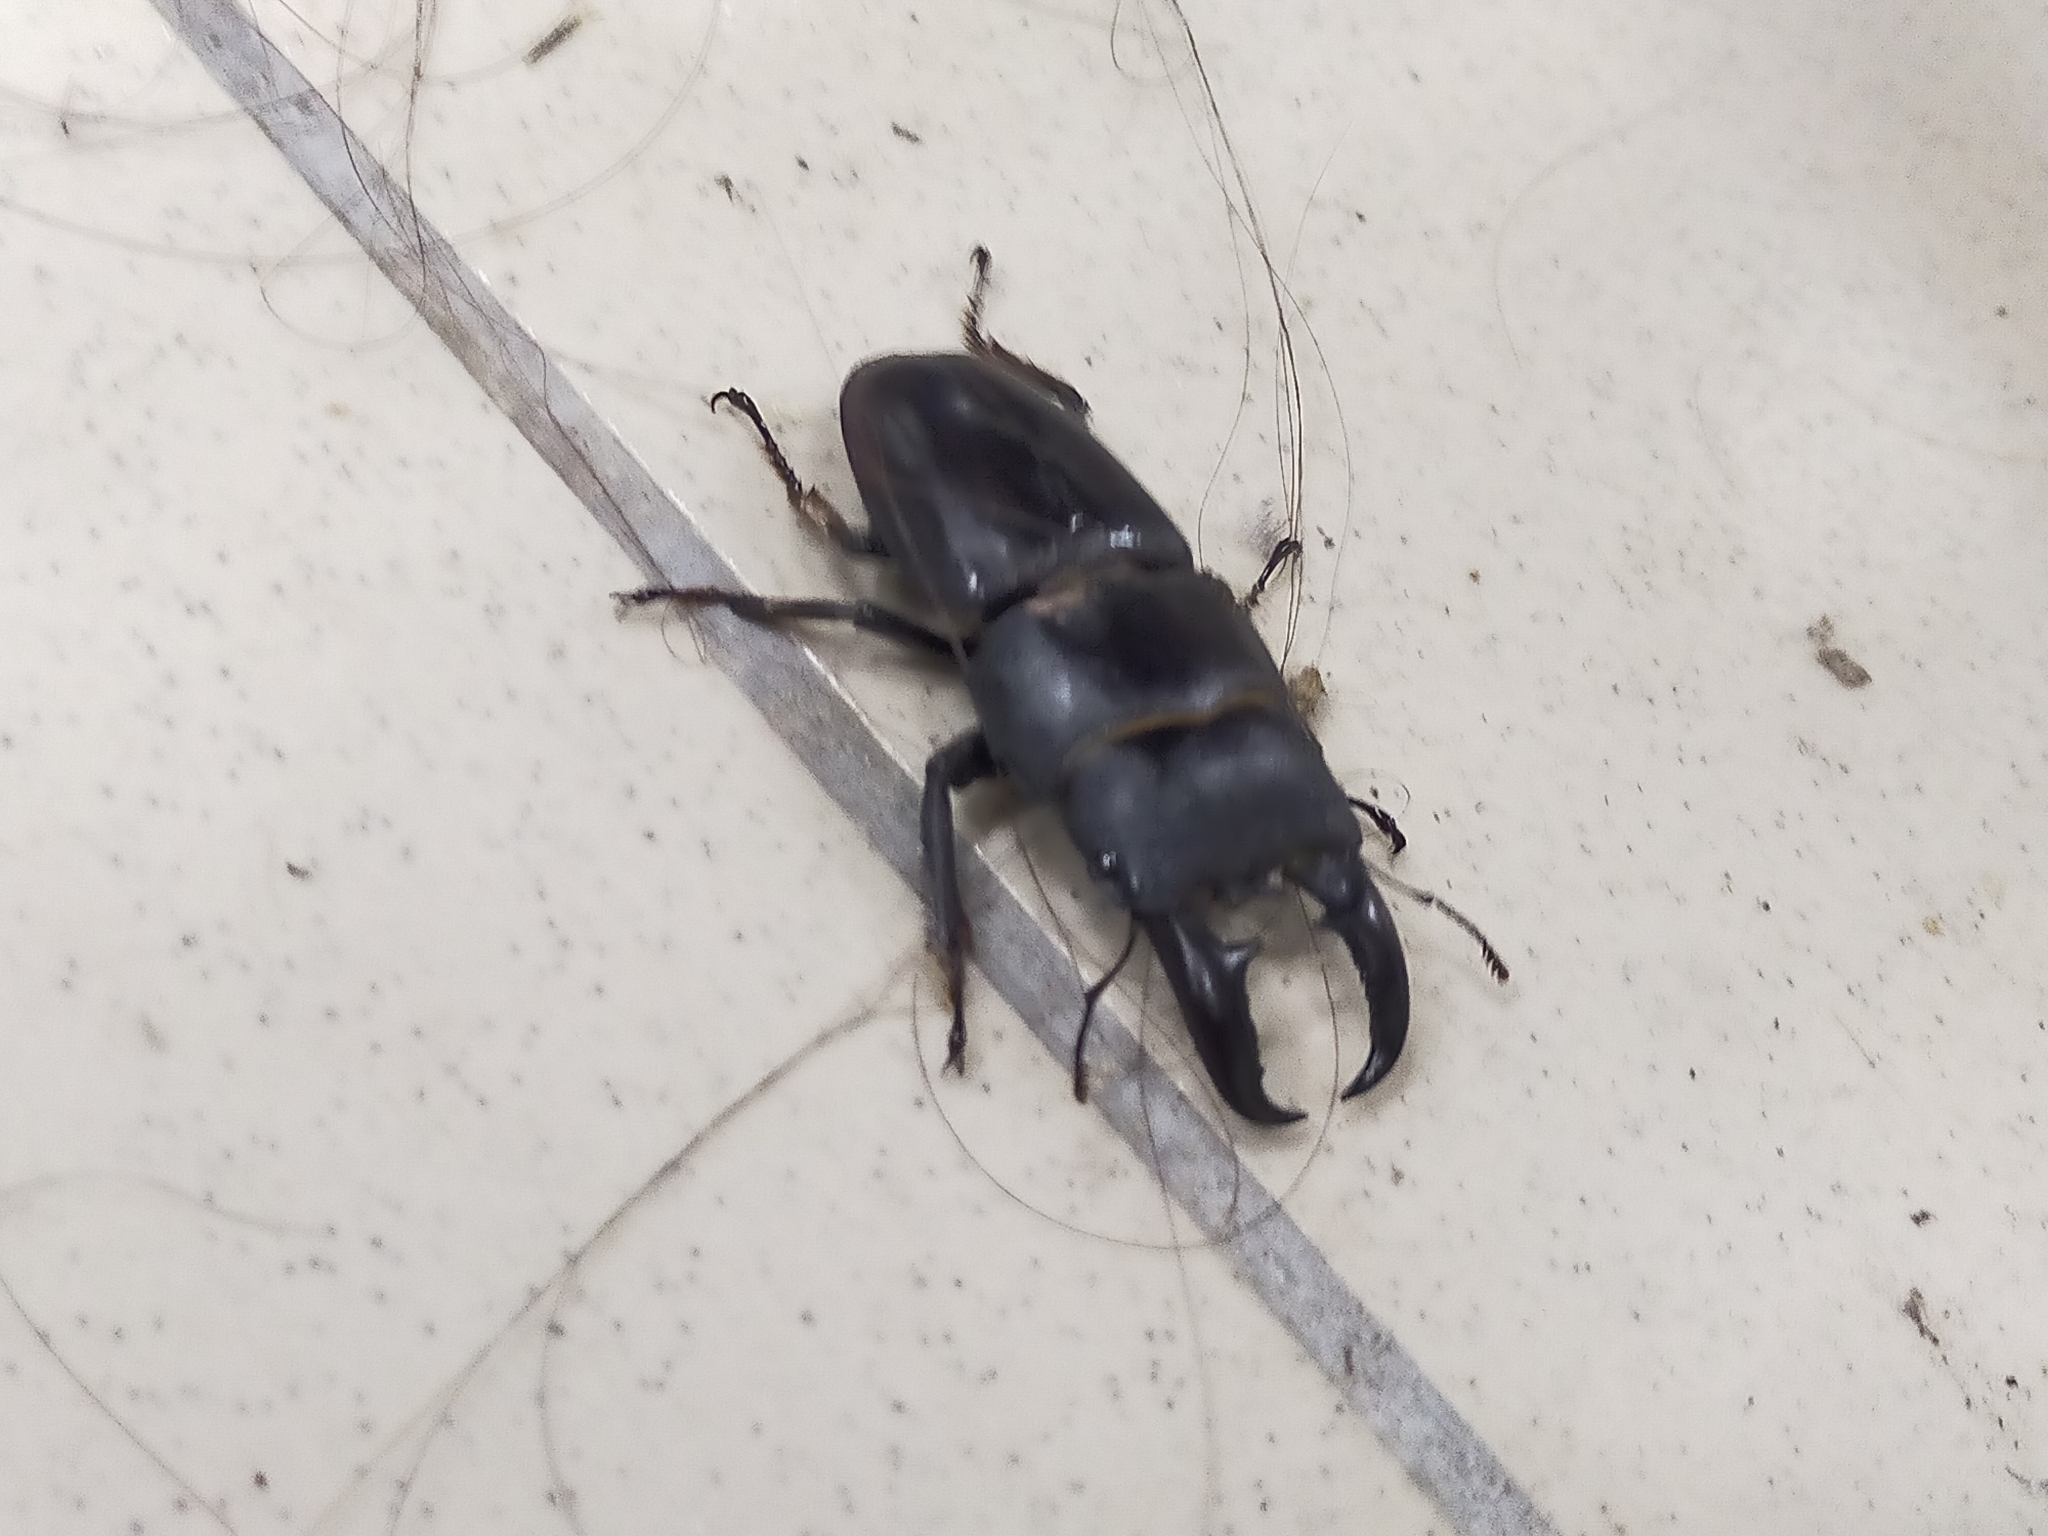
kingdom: Animalia
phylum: Arthropoda
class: Insecta
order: Coleoptera
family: Lucanidae
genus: Serrognathus
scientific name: Serrognathus titanus
